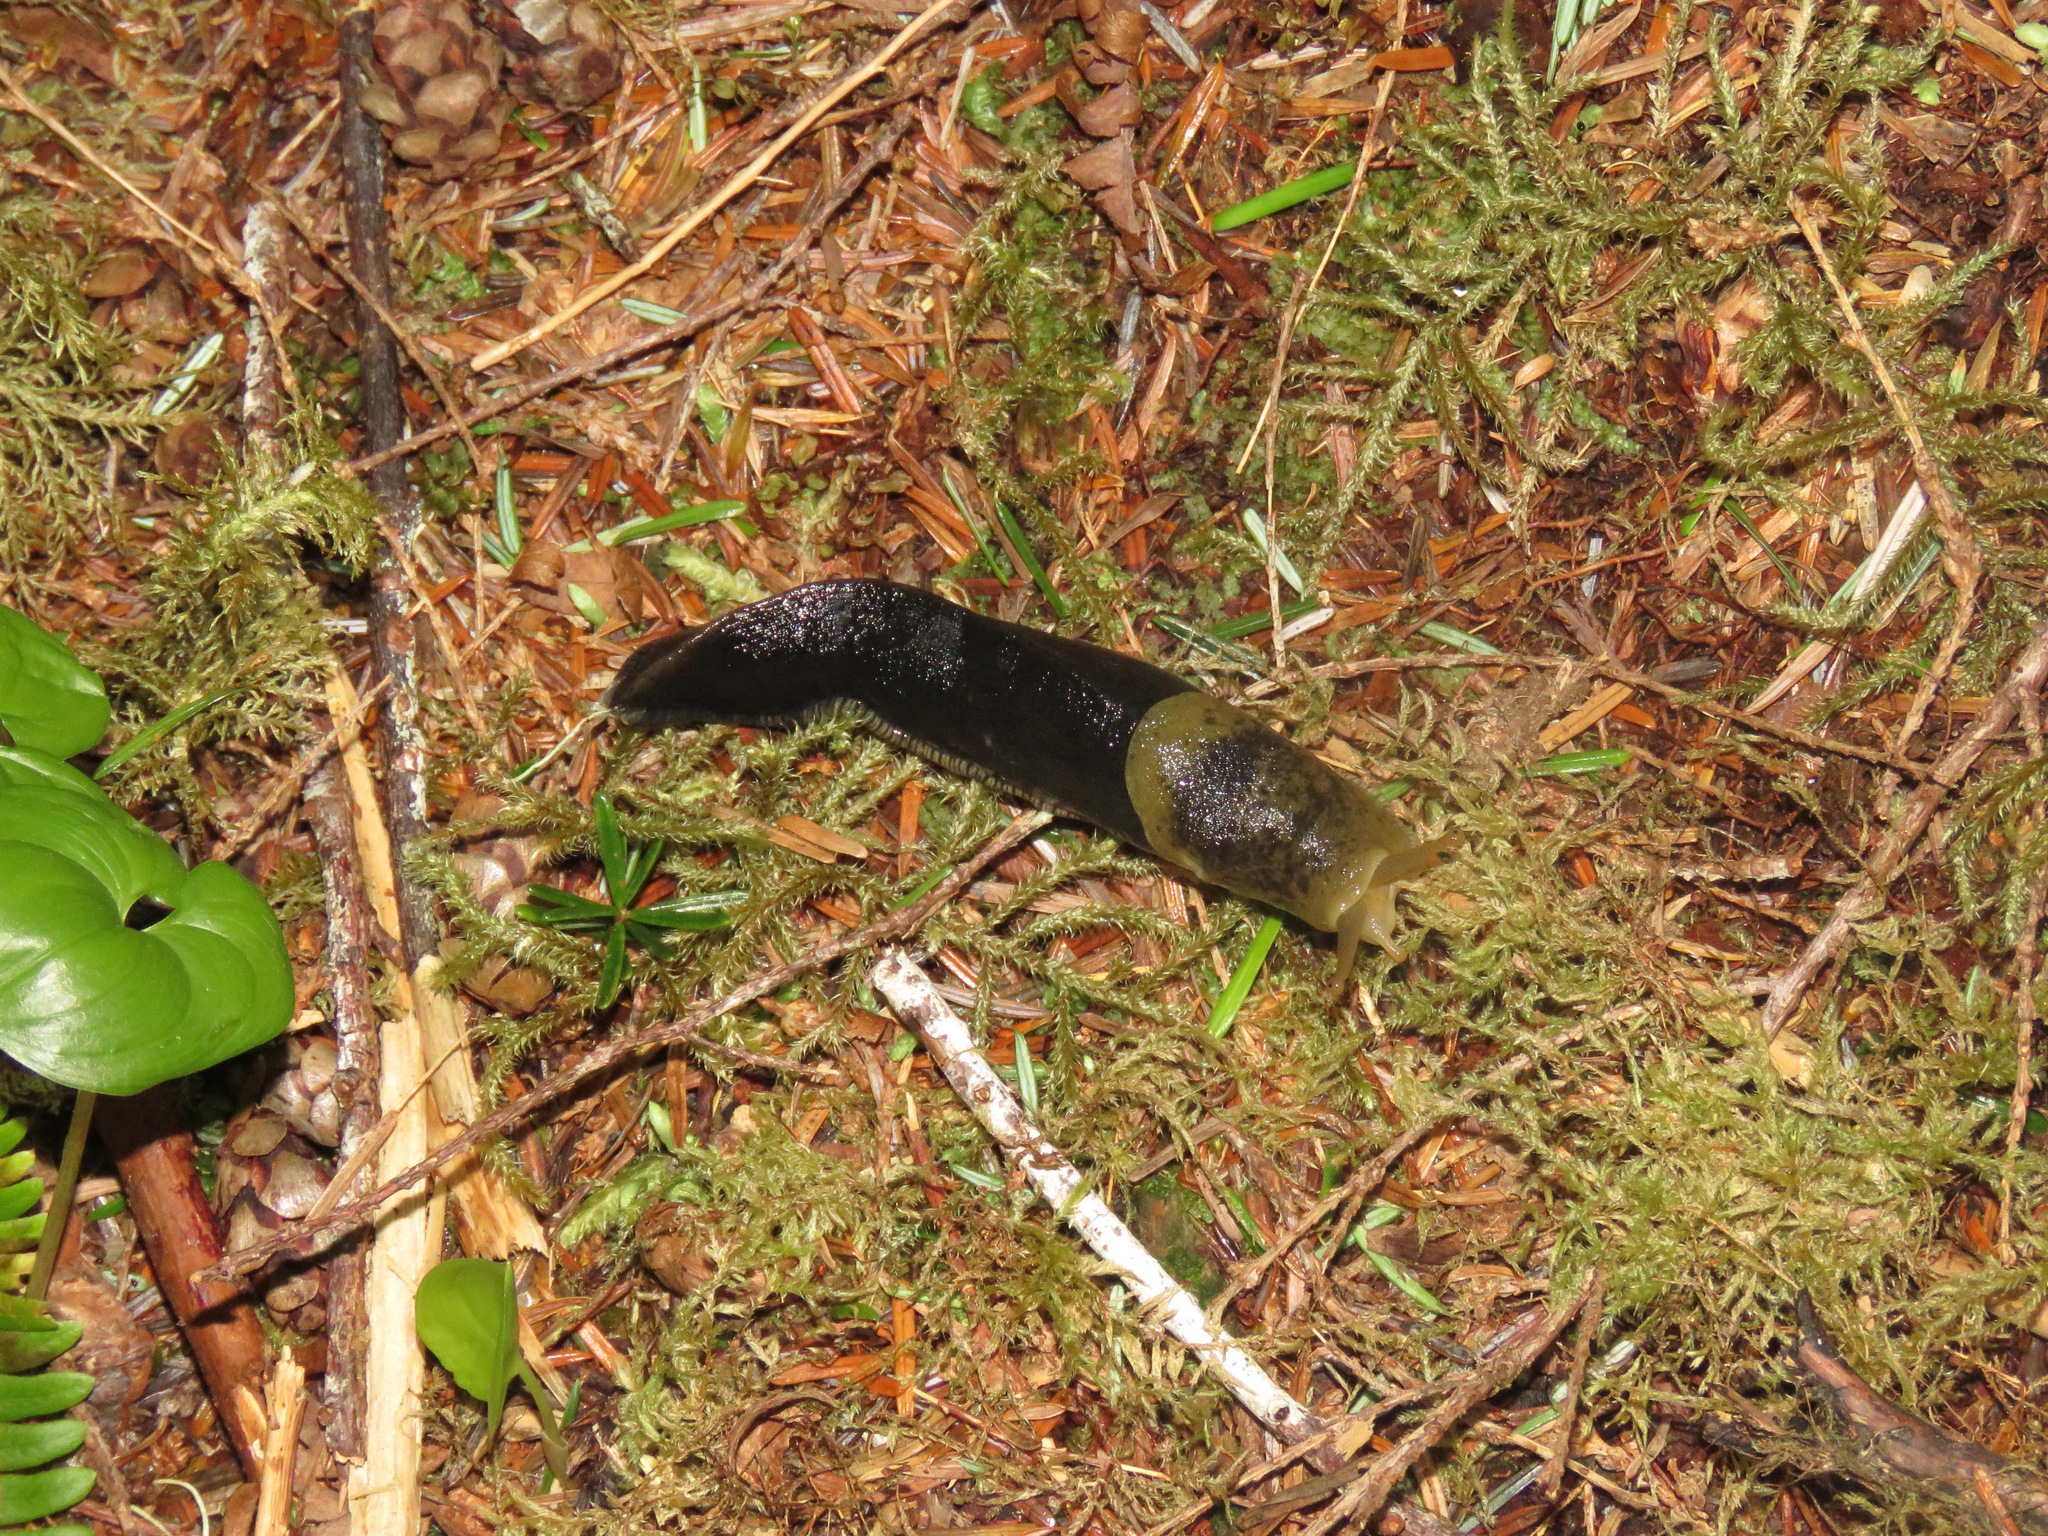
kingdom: Animalia
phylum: Mollusca
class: Gastropoda
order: Stylommatophora
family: Ariolimacidae
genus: Ariolimax
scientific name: Ariolimax columbianus
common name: Pacific banana slug
